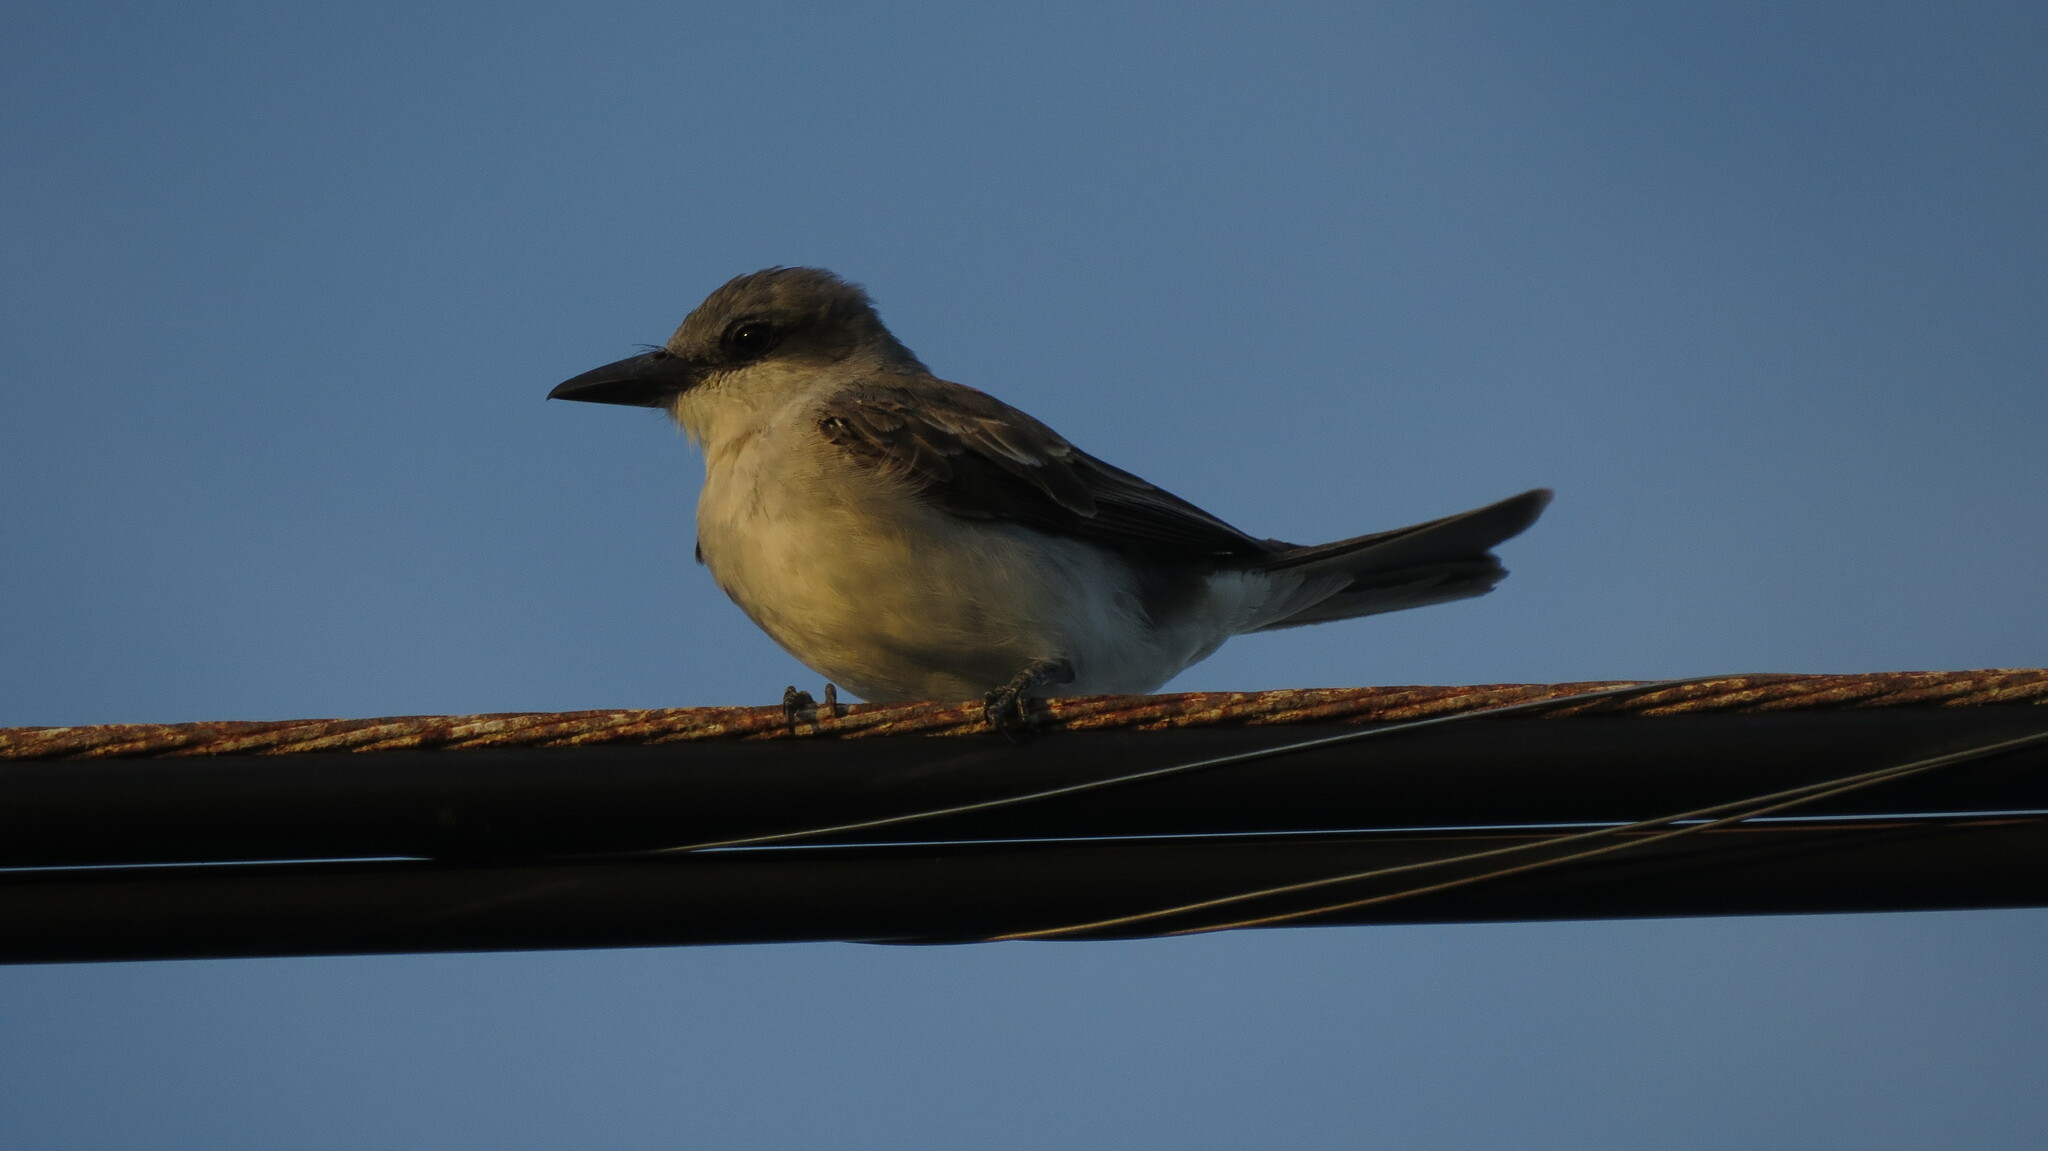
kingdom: Animalia
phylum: Chordata
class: Aves
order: Passeriformes
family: Tyrannidae
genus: Tyrannus
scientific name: Tyrannus dominicensis
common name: Gray kingbird
